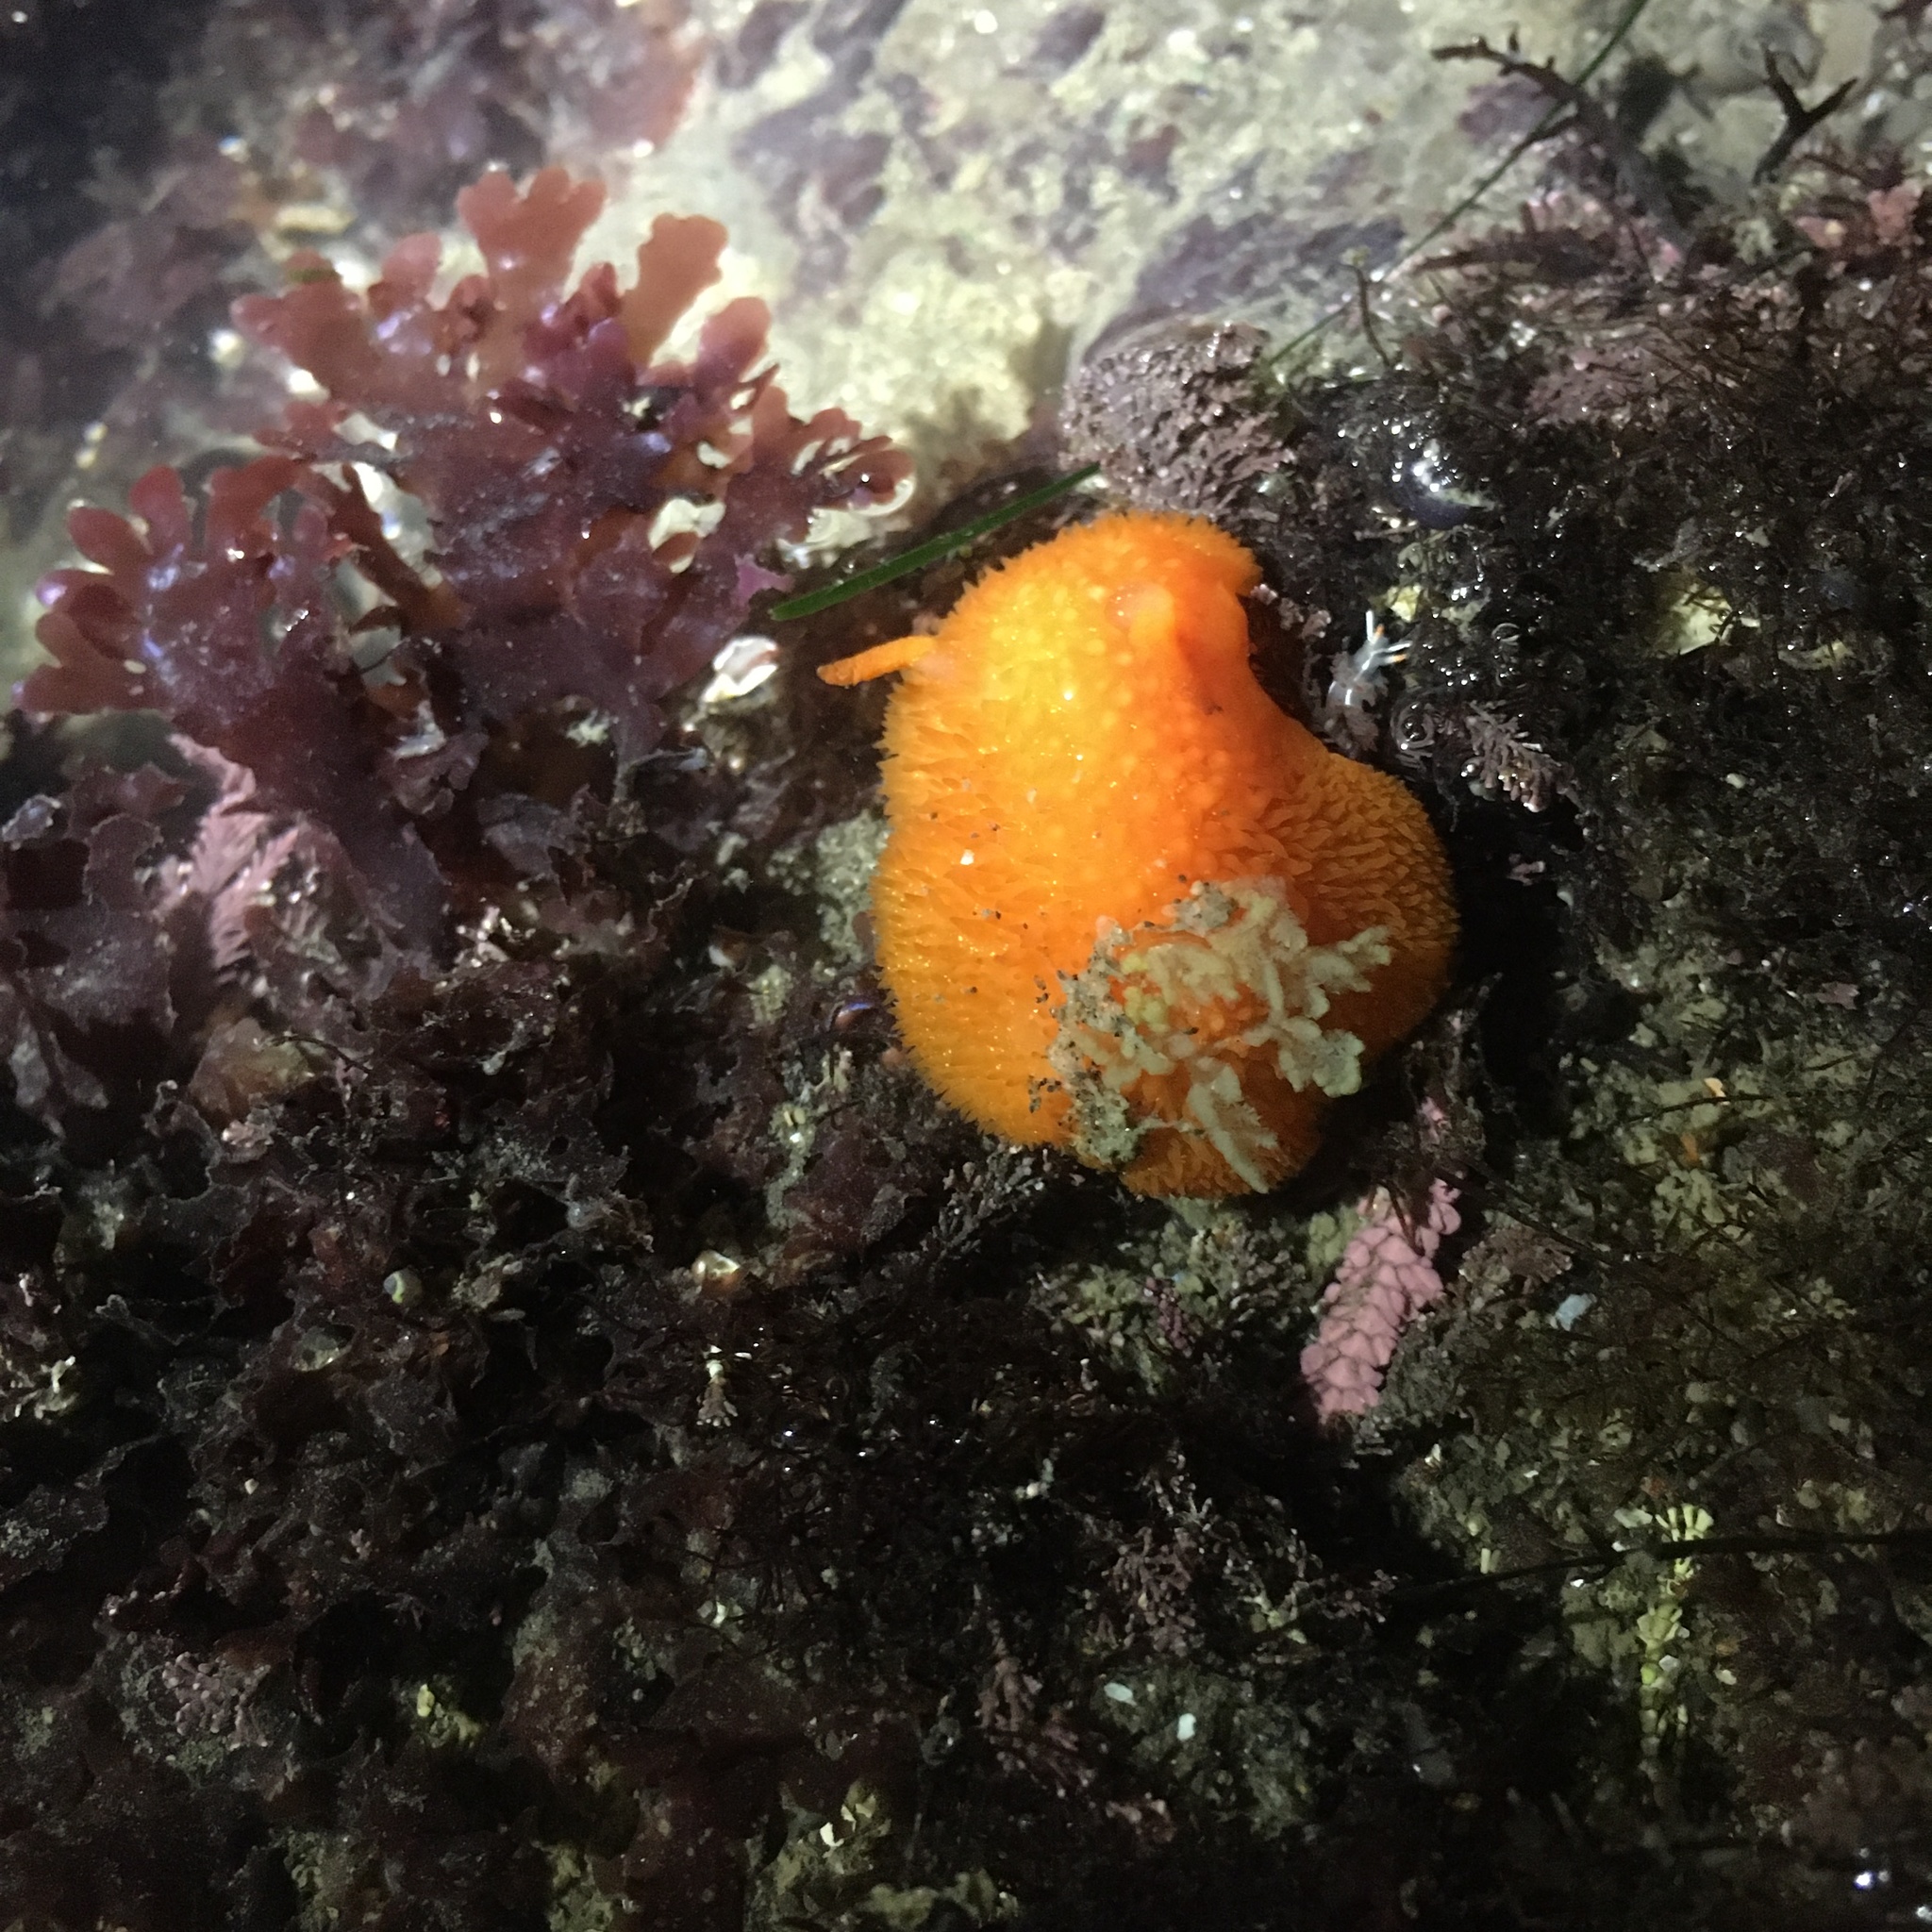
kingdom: Animalia
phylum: Mollusca
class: Gastropoda
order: Nudibranchia
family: Onchidorididae
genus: Acanthodoris
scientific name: Acanthodoris lutea
